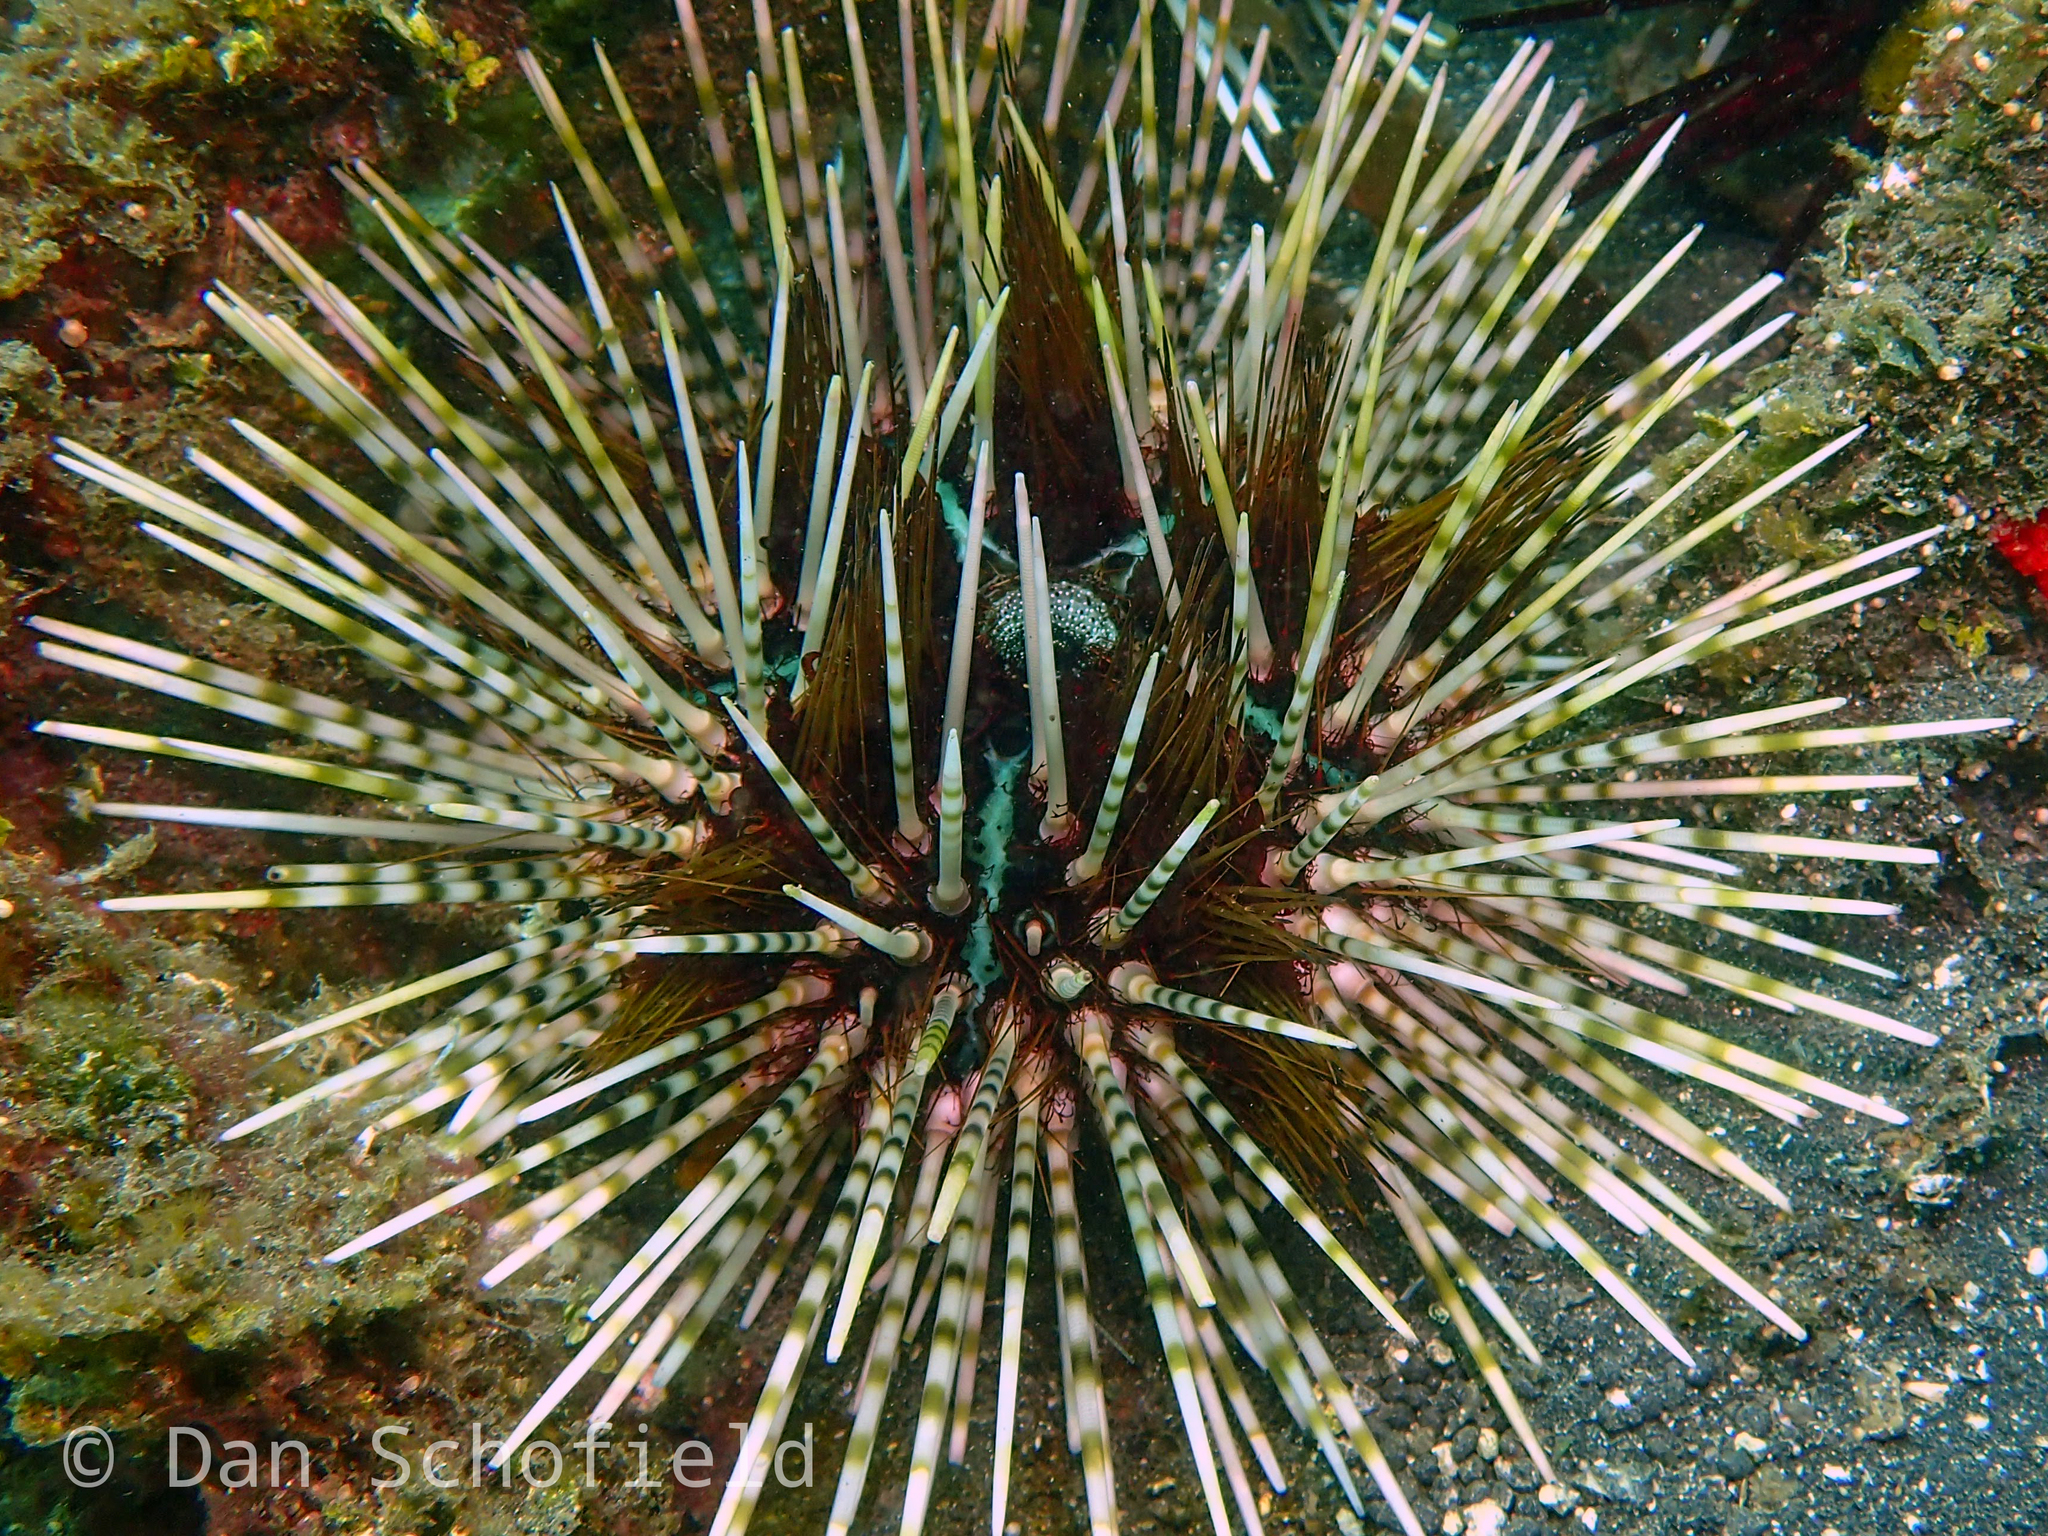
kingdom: Animalia
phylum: Echinodermata
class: Echinoidea
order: Diadematoida
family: Diadematidae
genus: Echinothrix
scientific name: Echinothrix calamaris
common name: Banded sea urchin
